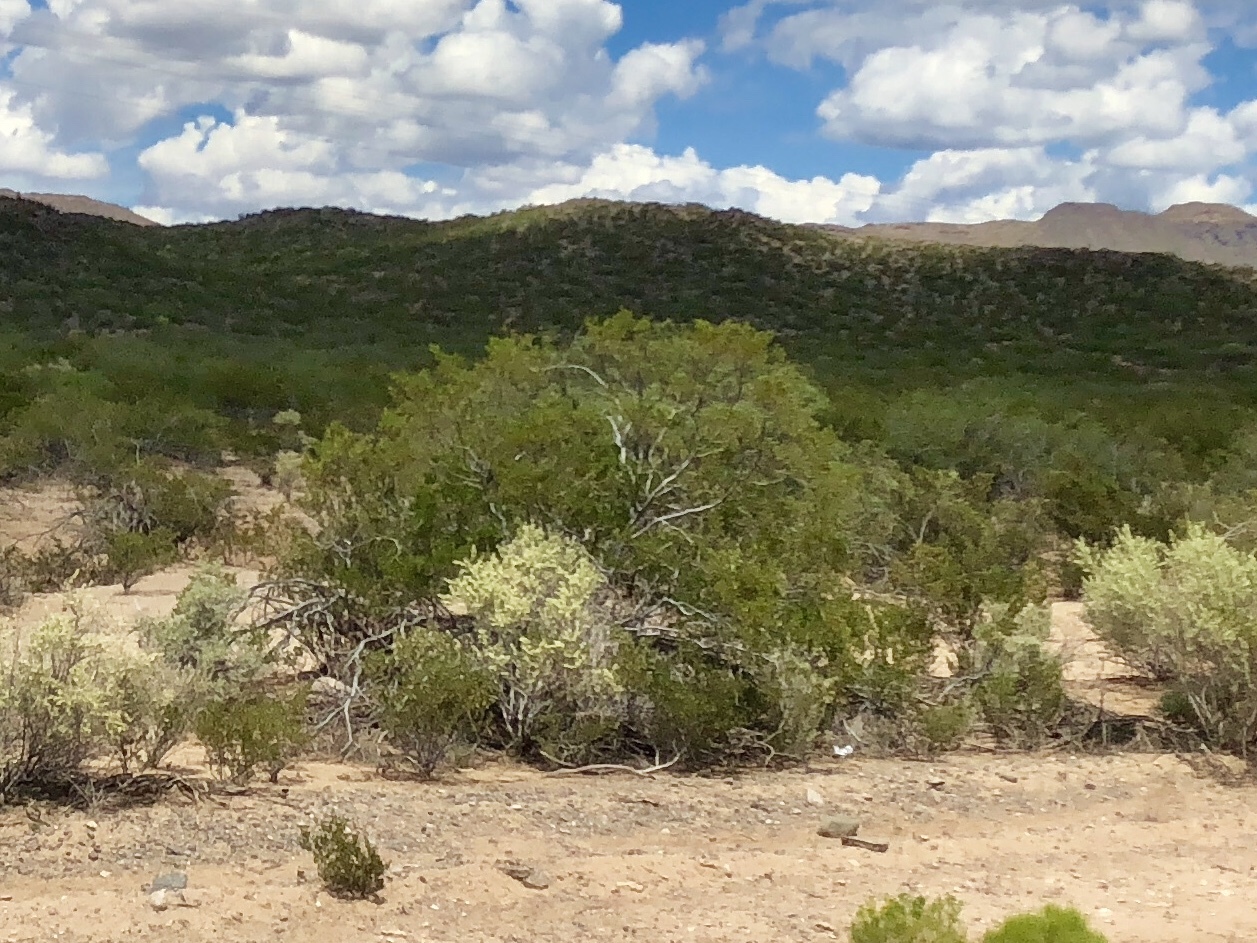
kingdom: Plantae
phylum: Tracheophyta
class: Magnoliopsida
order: Zygophyllales
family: Zygophyllaceae
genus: Larrea
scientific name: Larrea tridentata
